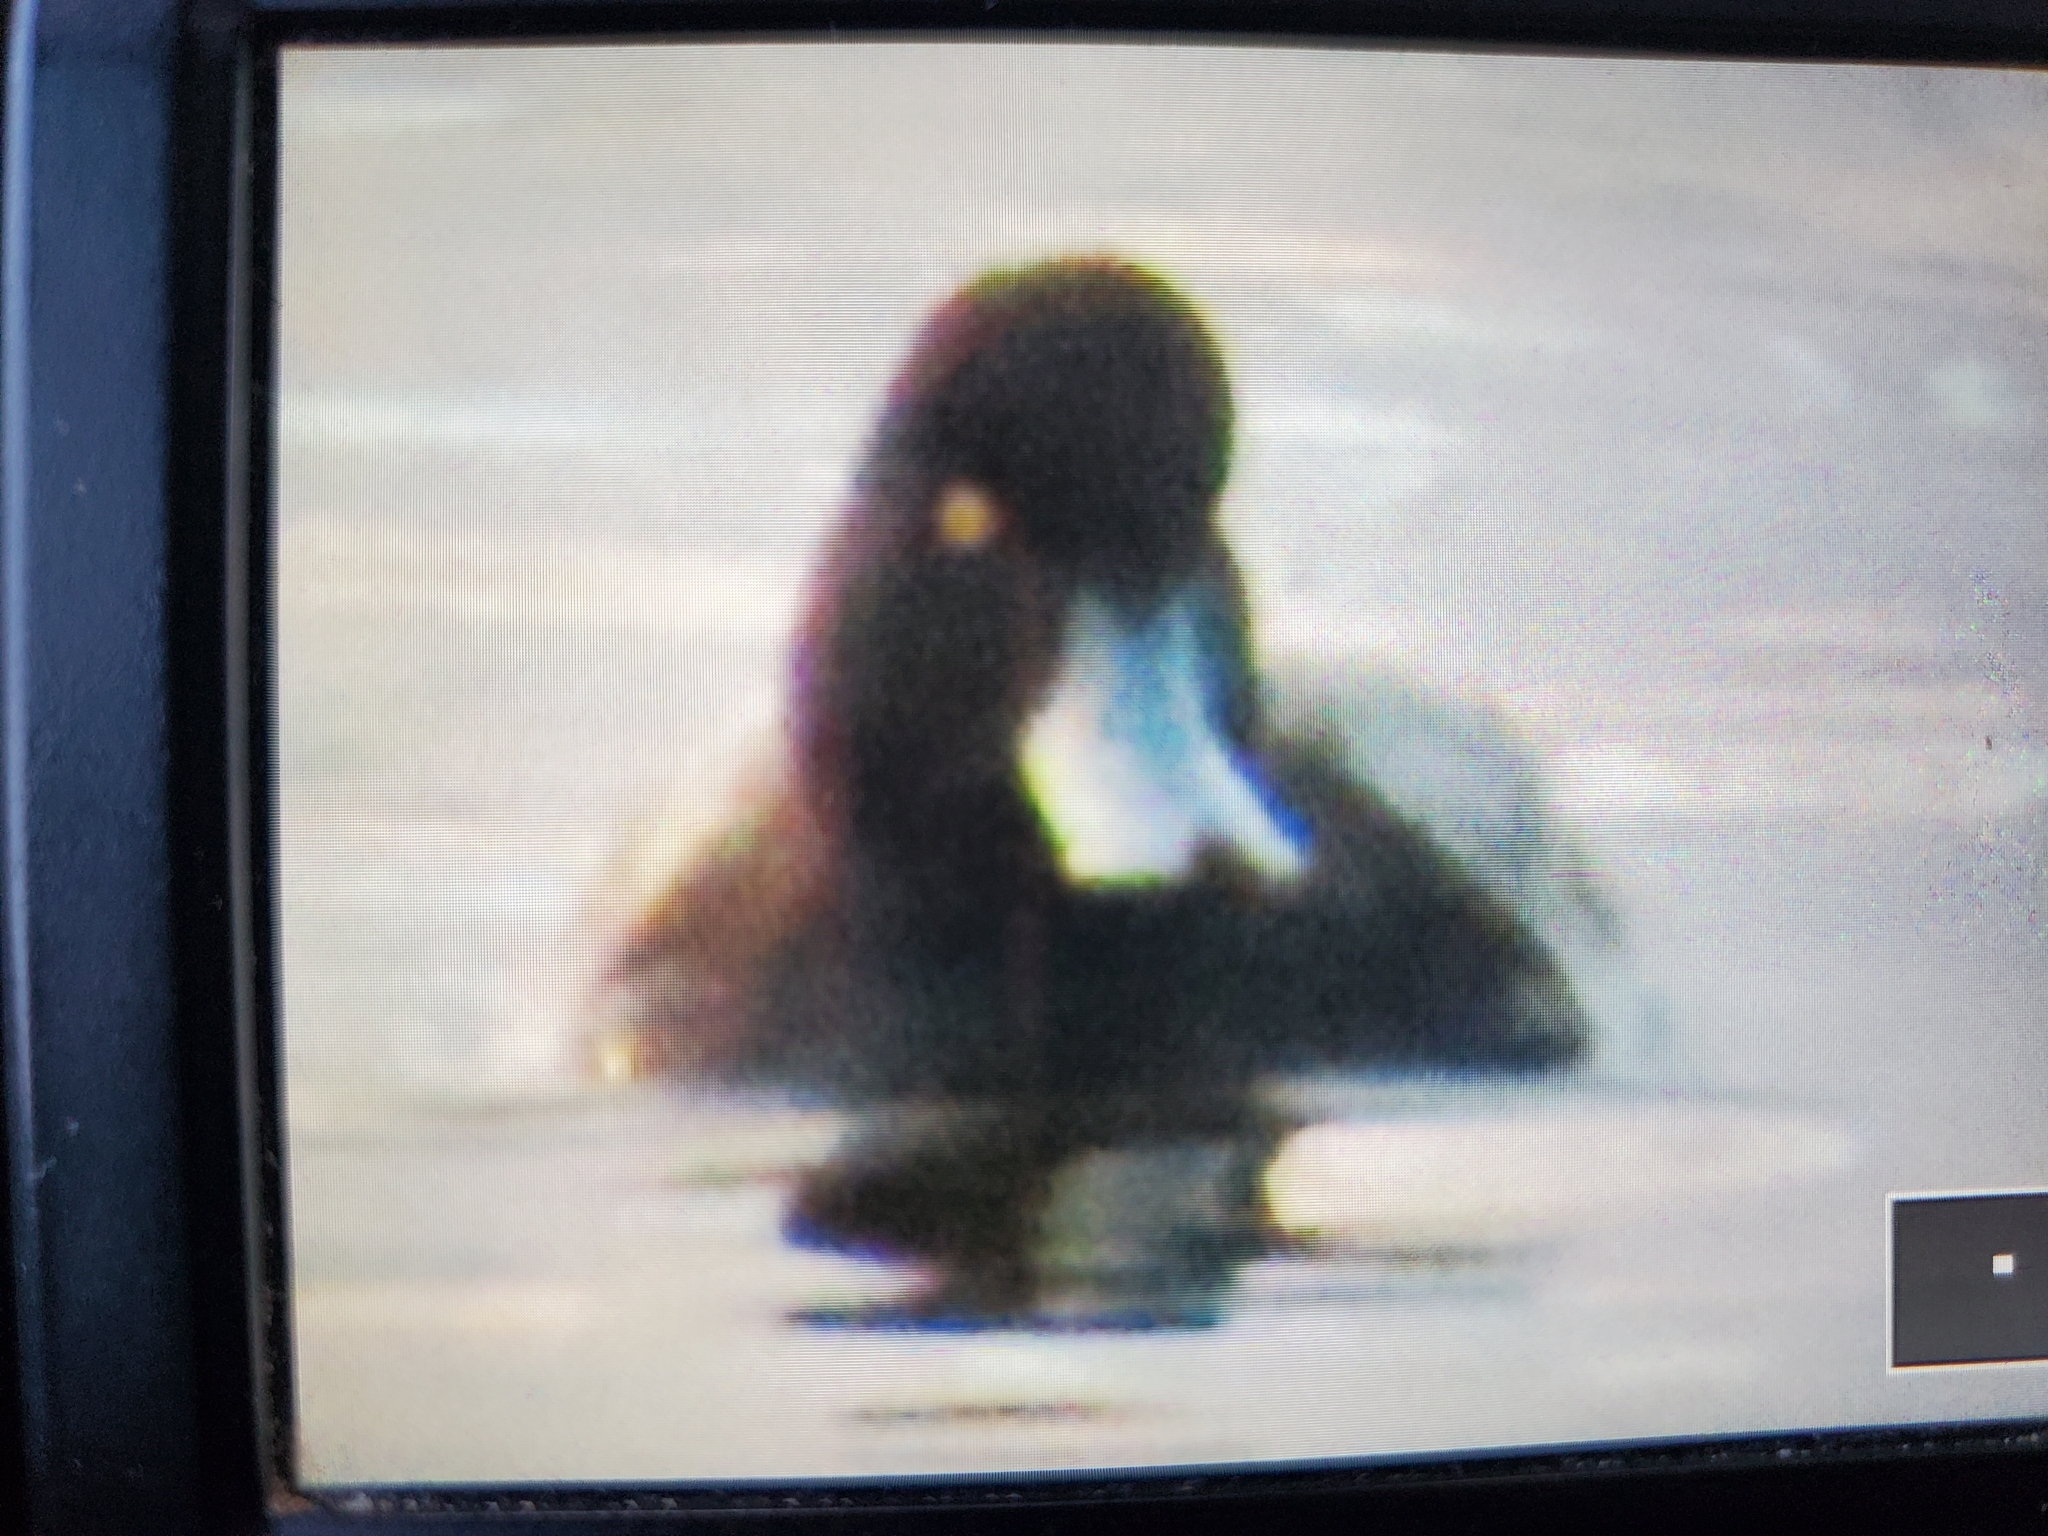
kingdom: Animalia
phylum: Chordata
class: Aves
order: Anseriformes
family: Anatidae
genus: Aythya
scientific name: Aythya affinis
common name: Lesser scaup
